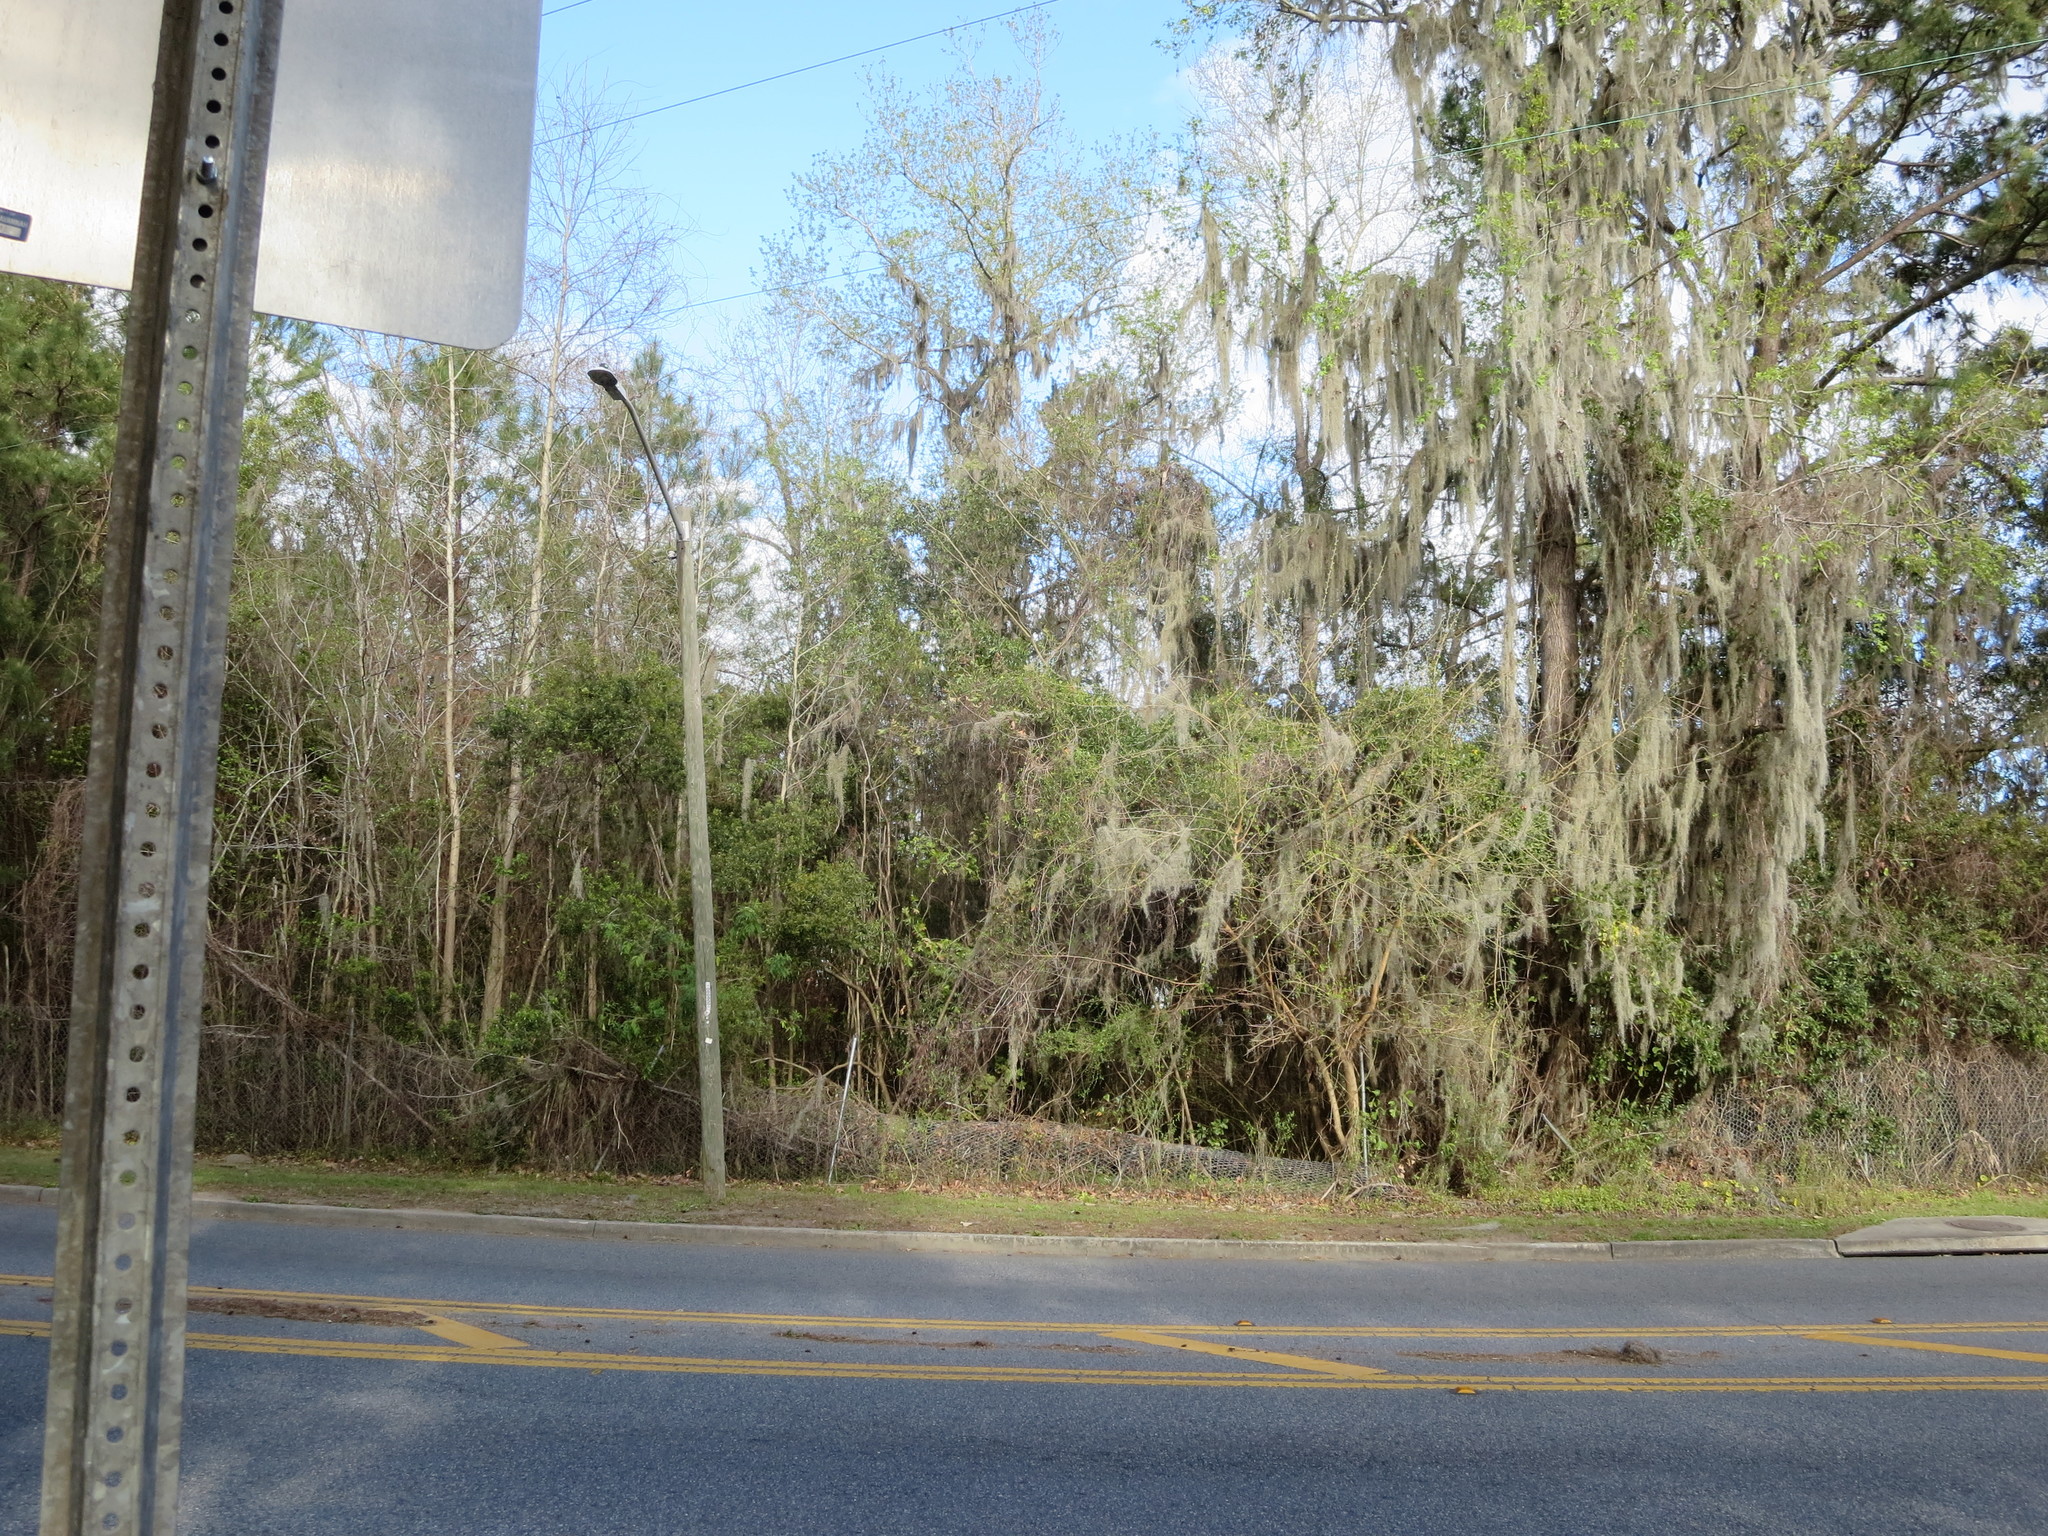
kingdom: Plantae
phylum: Tracheophyta
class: Magnoliopsida
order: Gentianales
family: Gelsemiaceae
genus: Gelsemium
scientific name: Gelsemium sempervirens
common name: Carolina-jasmine
